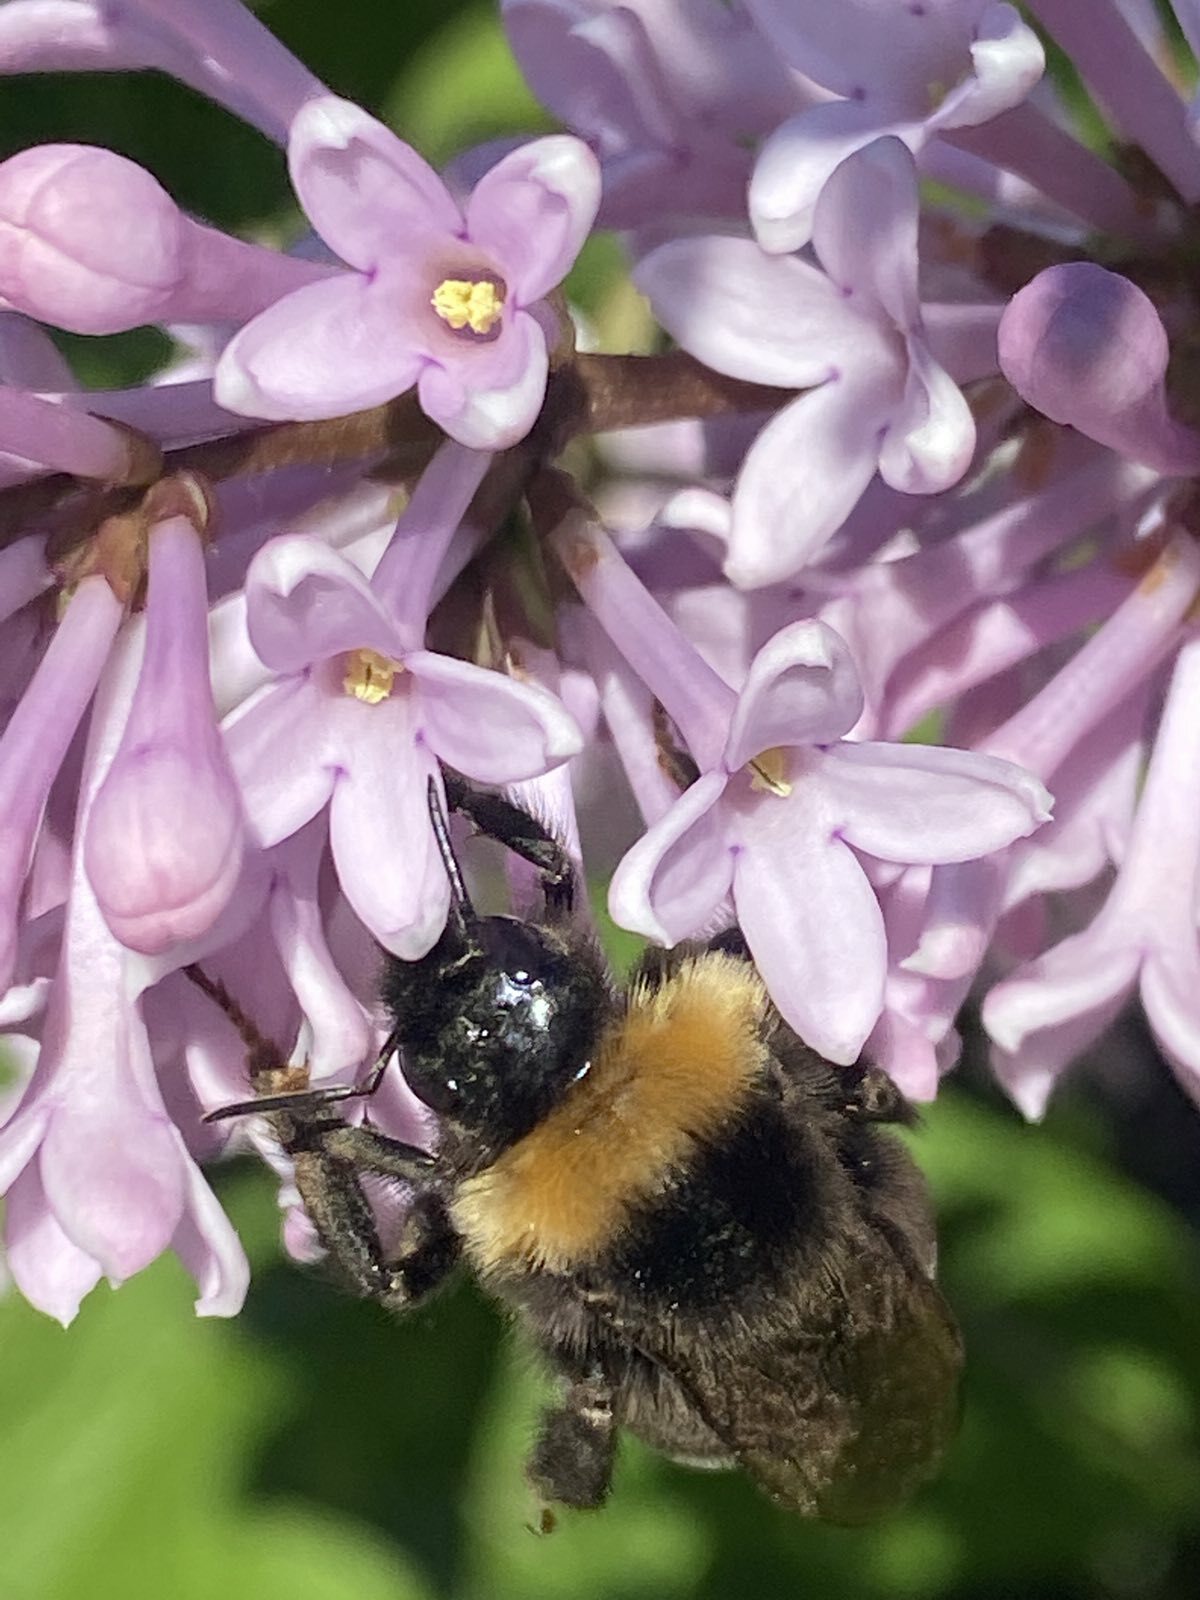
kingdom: Animalia
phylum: Arthropoda
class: Insecta
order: Hymenoptera
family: Apidae
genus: Bombus
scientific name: Bombus bohemicus
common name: Gypsy cuckoo bee
